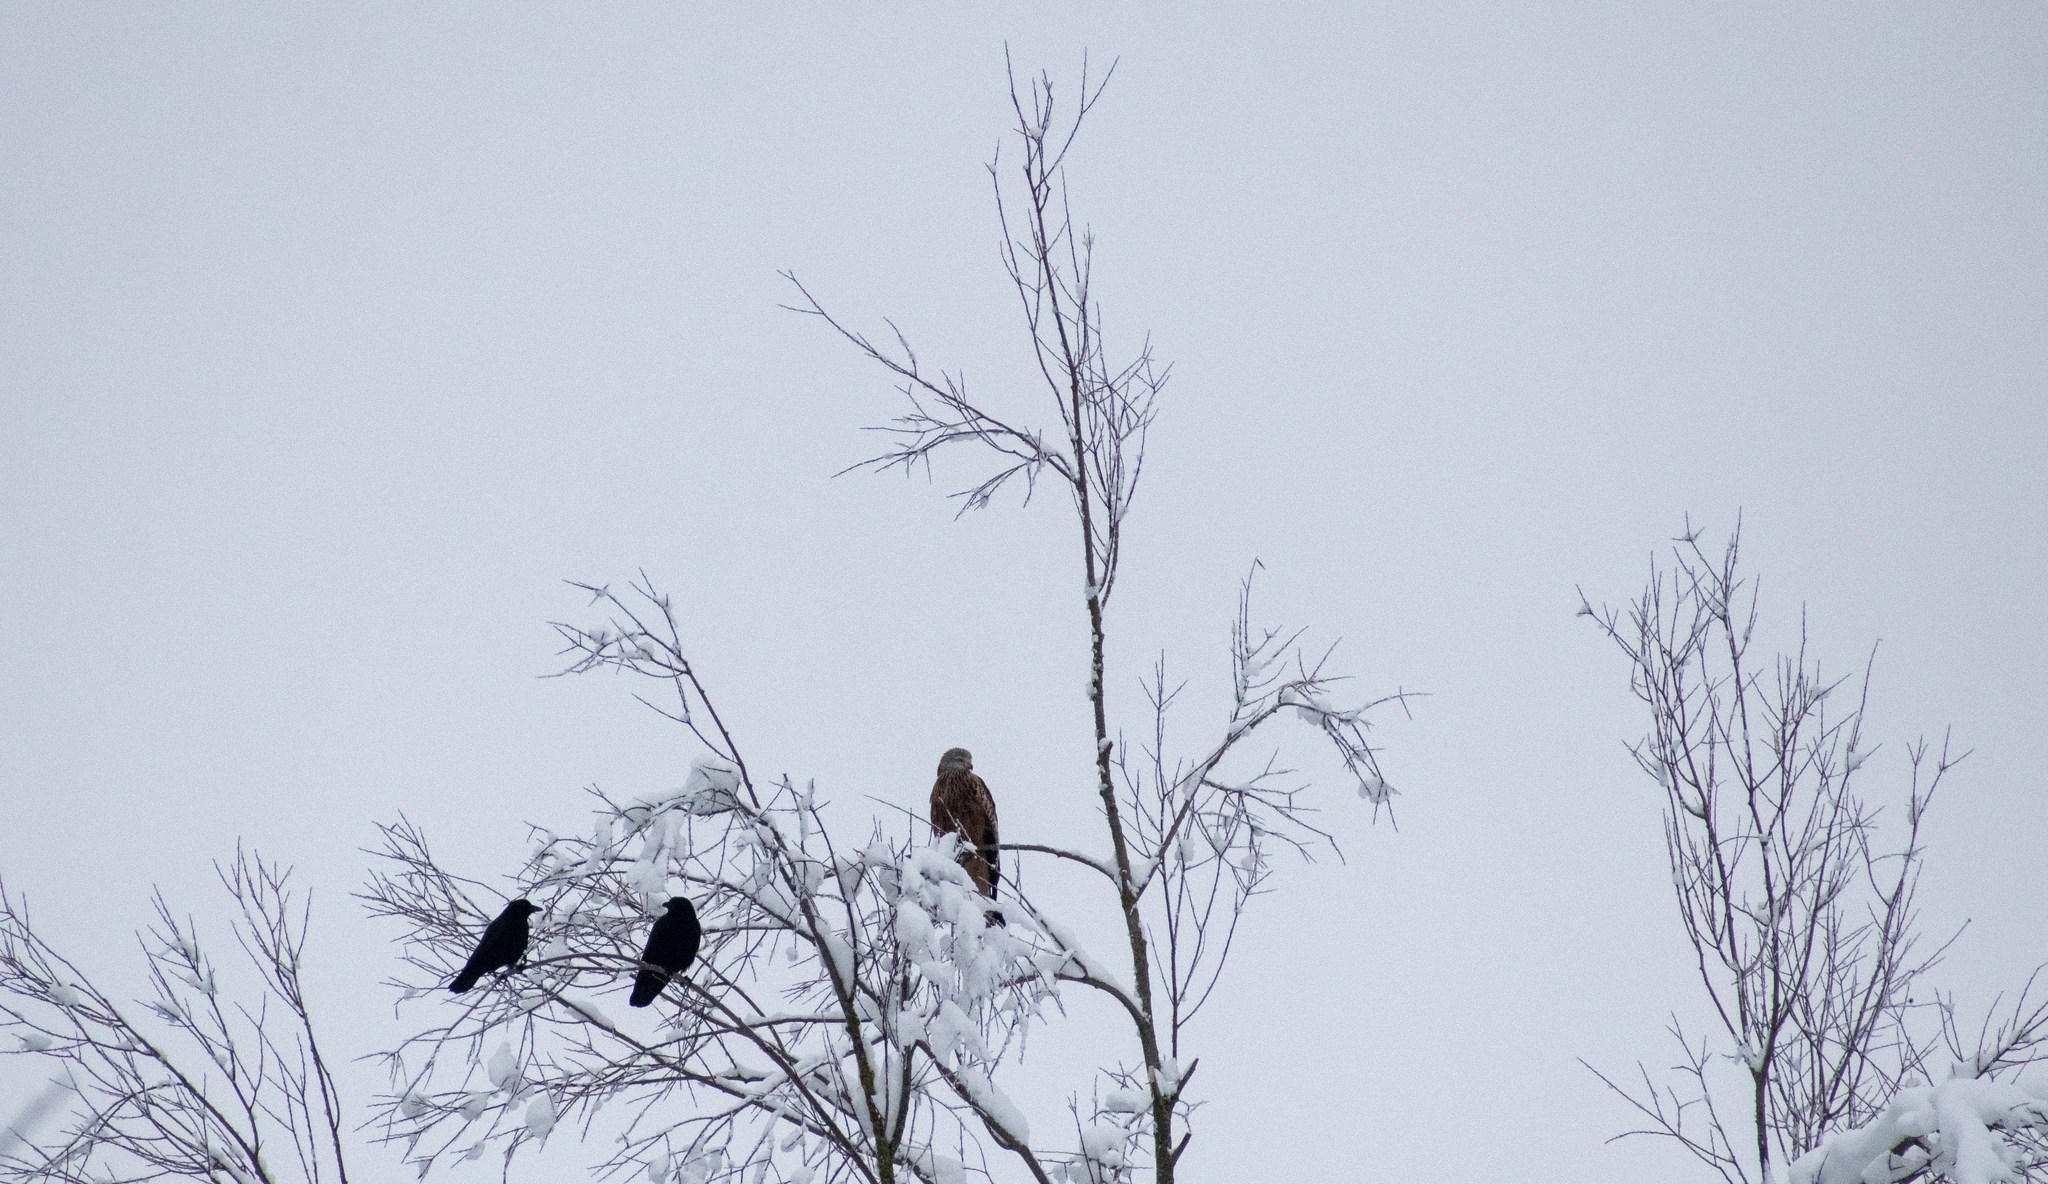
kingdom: Animalia
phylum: Chordata
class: Aves
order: Accipitriformes
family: Accipitridae
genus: Milvus
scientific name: Milvus milvus
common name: Red kite
